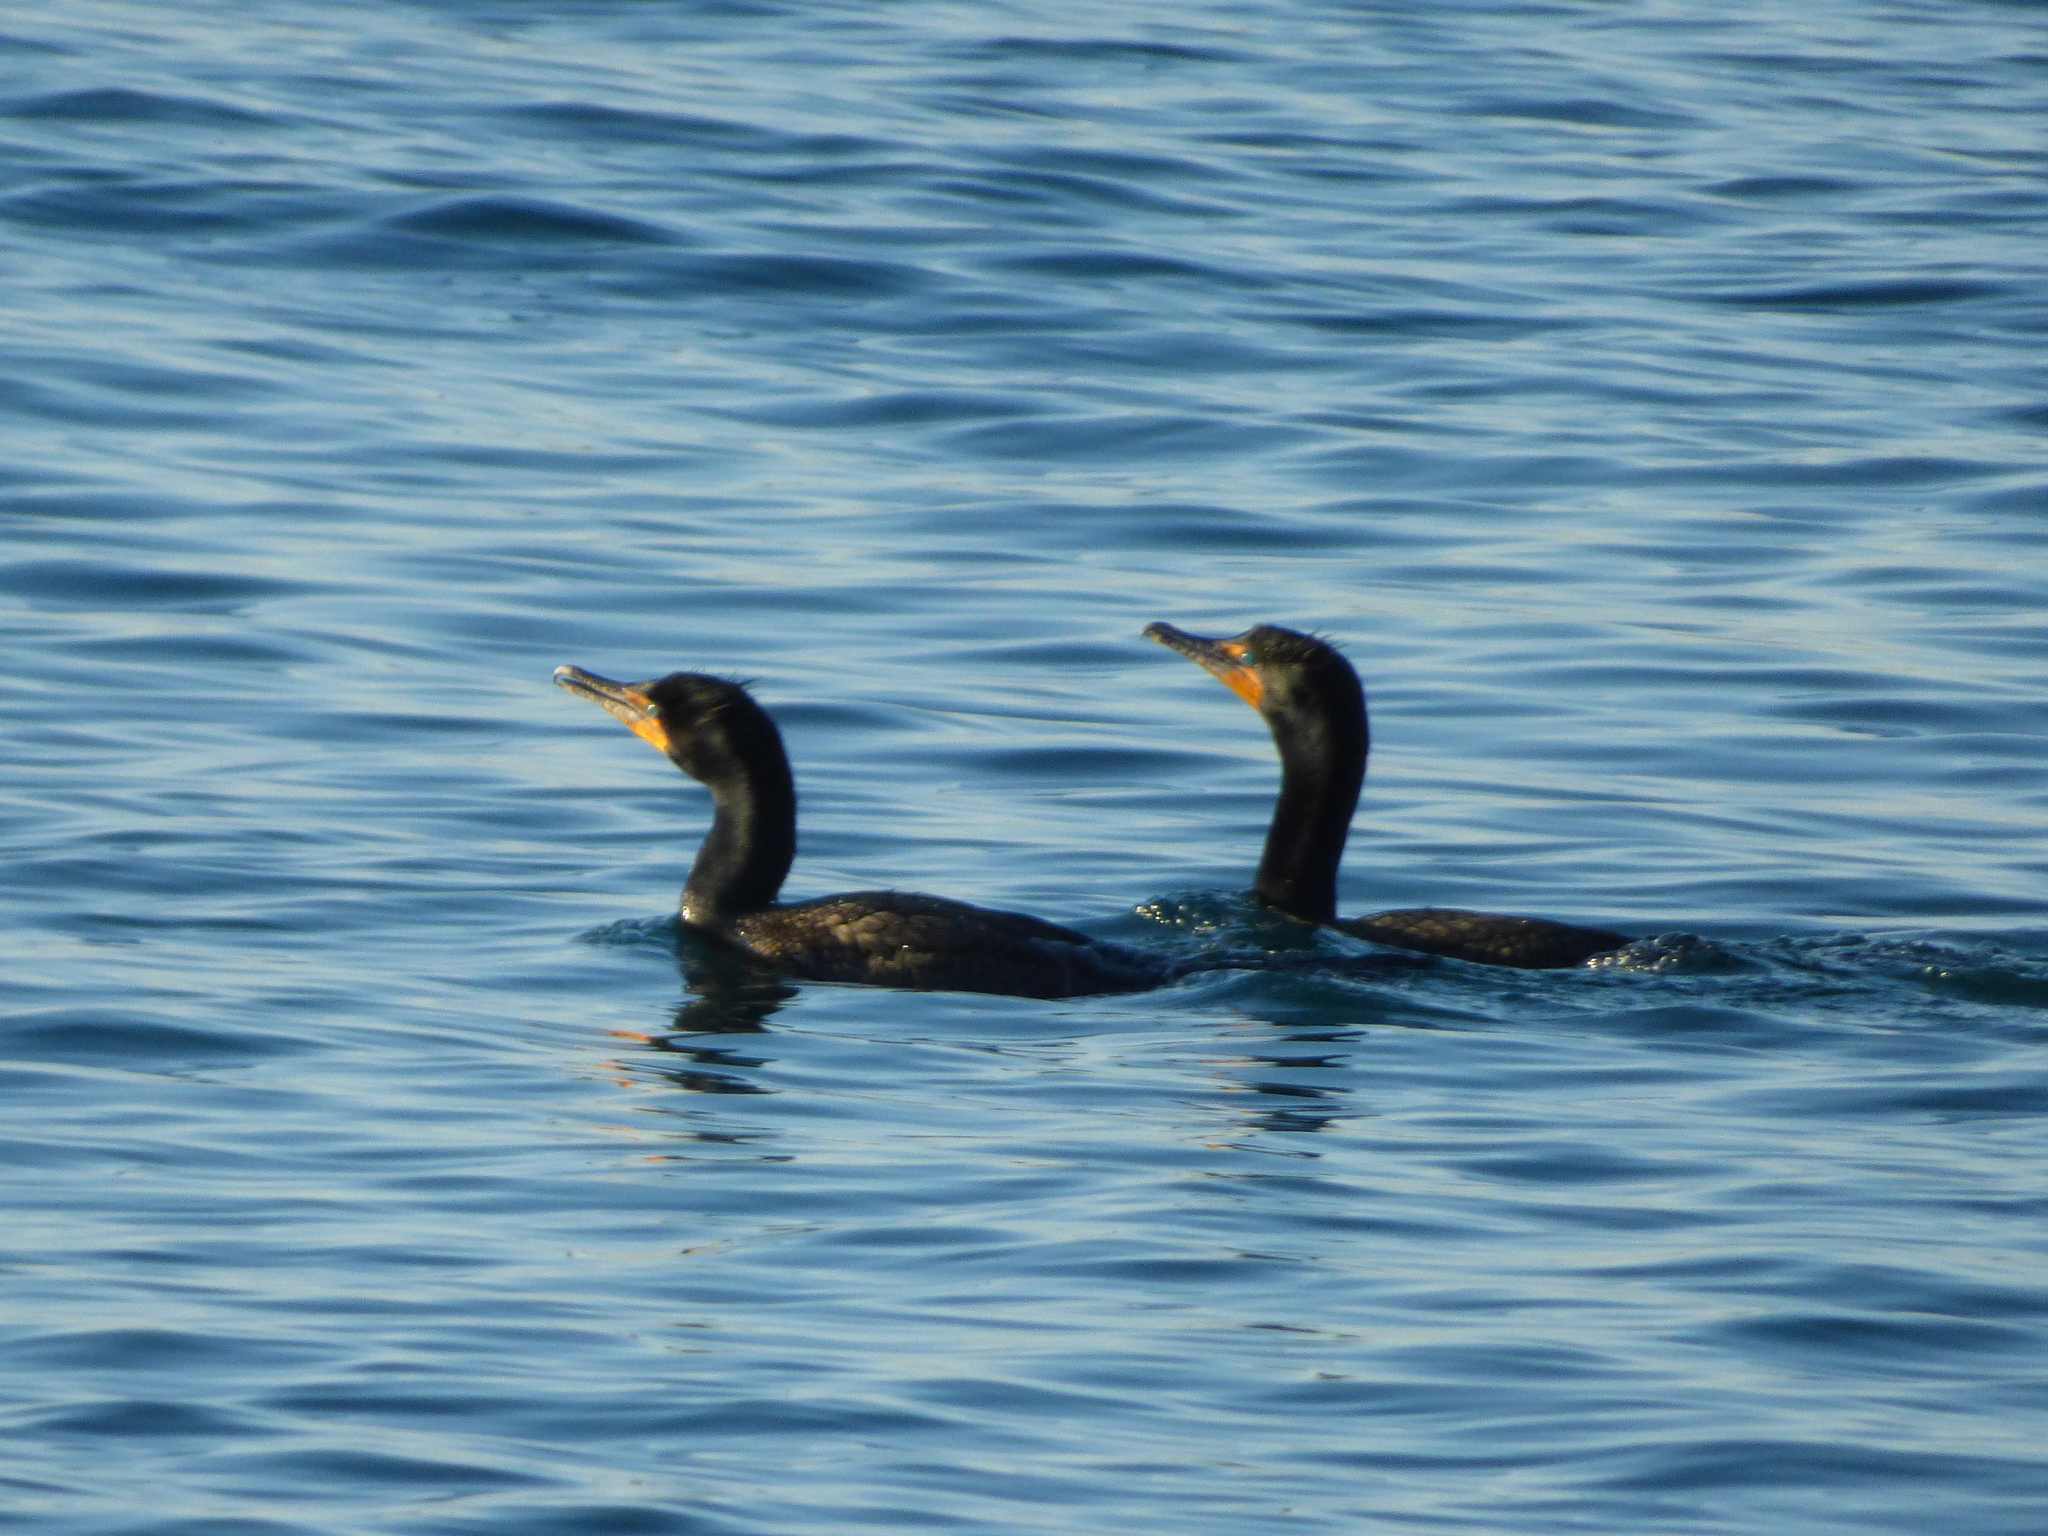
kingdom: Animalia
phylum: Chordata
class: Aves
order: Suliformes
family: Phalacrocoracidae
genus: Phalacrocorax
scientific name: Phalacrocorax auritus
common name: Double-crested cormorant
